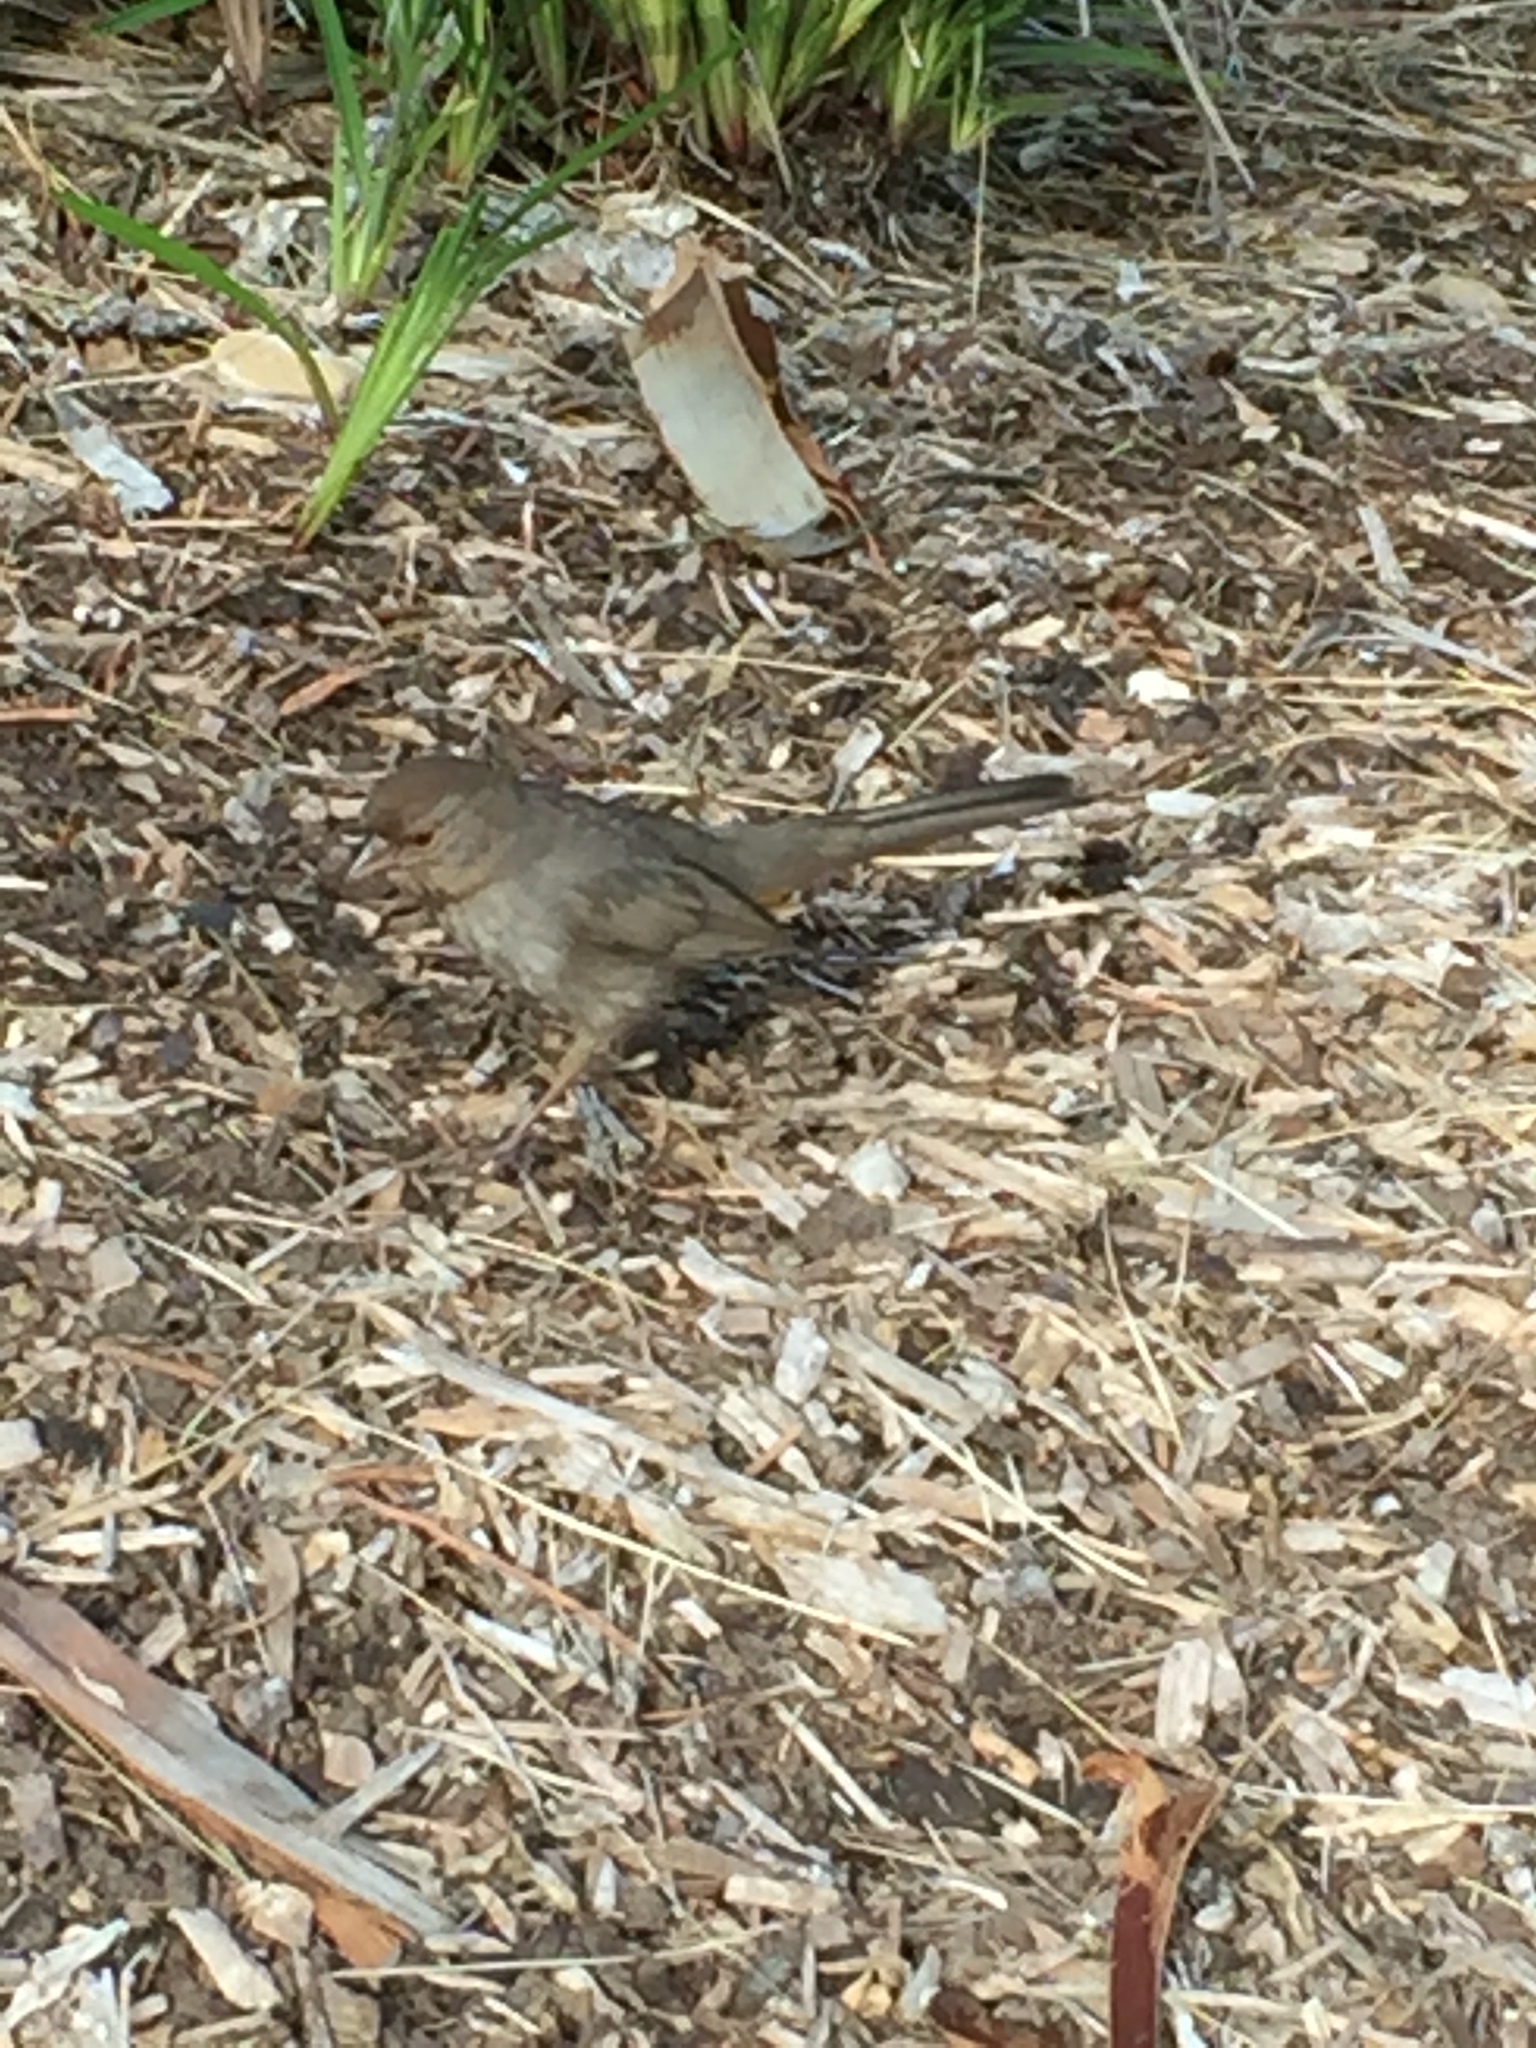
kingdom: Animalia
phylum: Chordata
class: Aves
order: Passeriformes
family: Passerellidae
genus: Melozone
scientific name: Melozone crissalis
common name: California towhee
